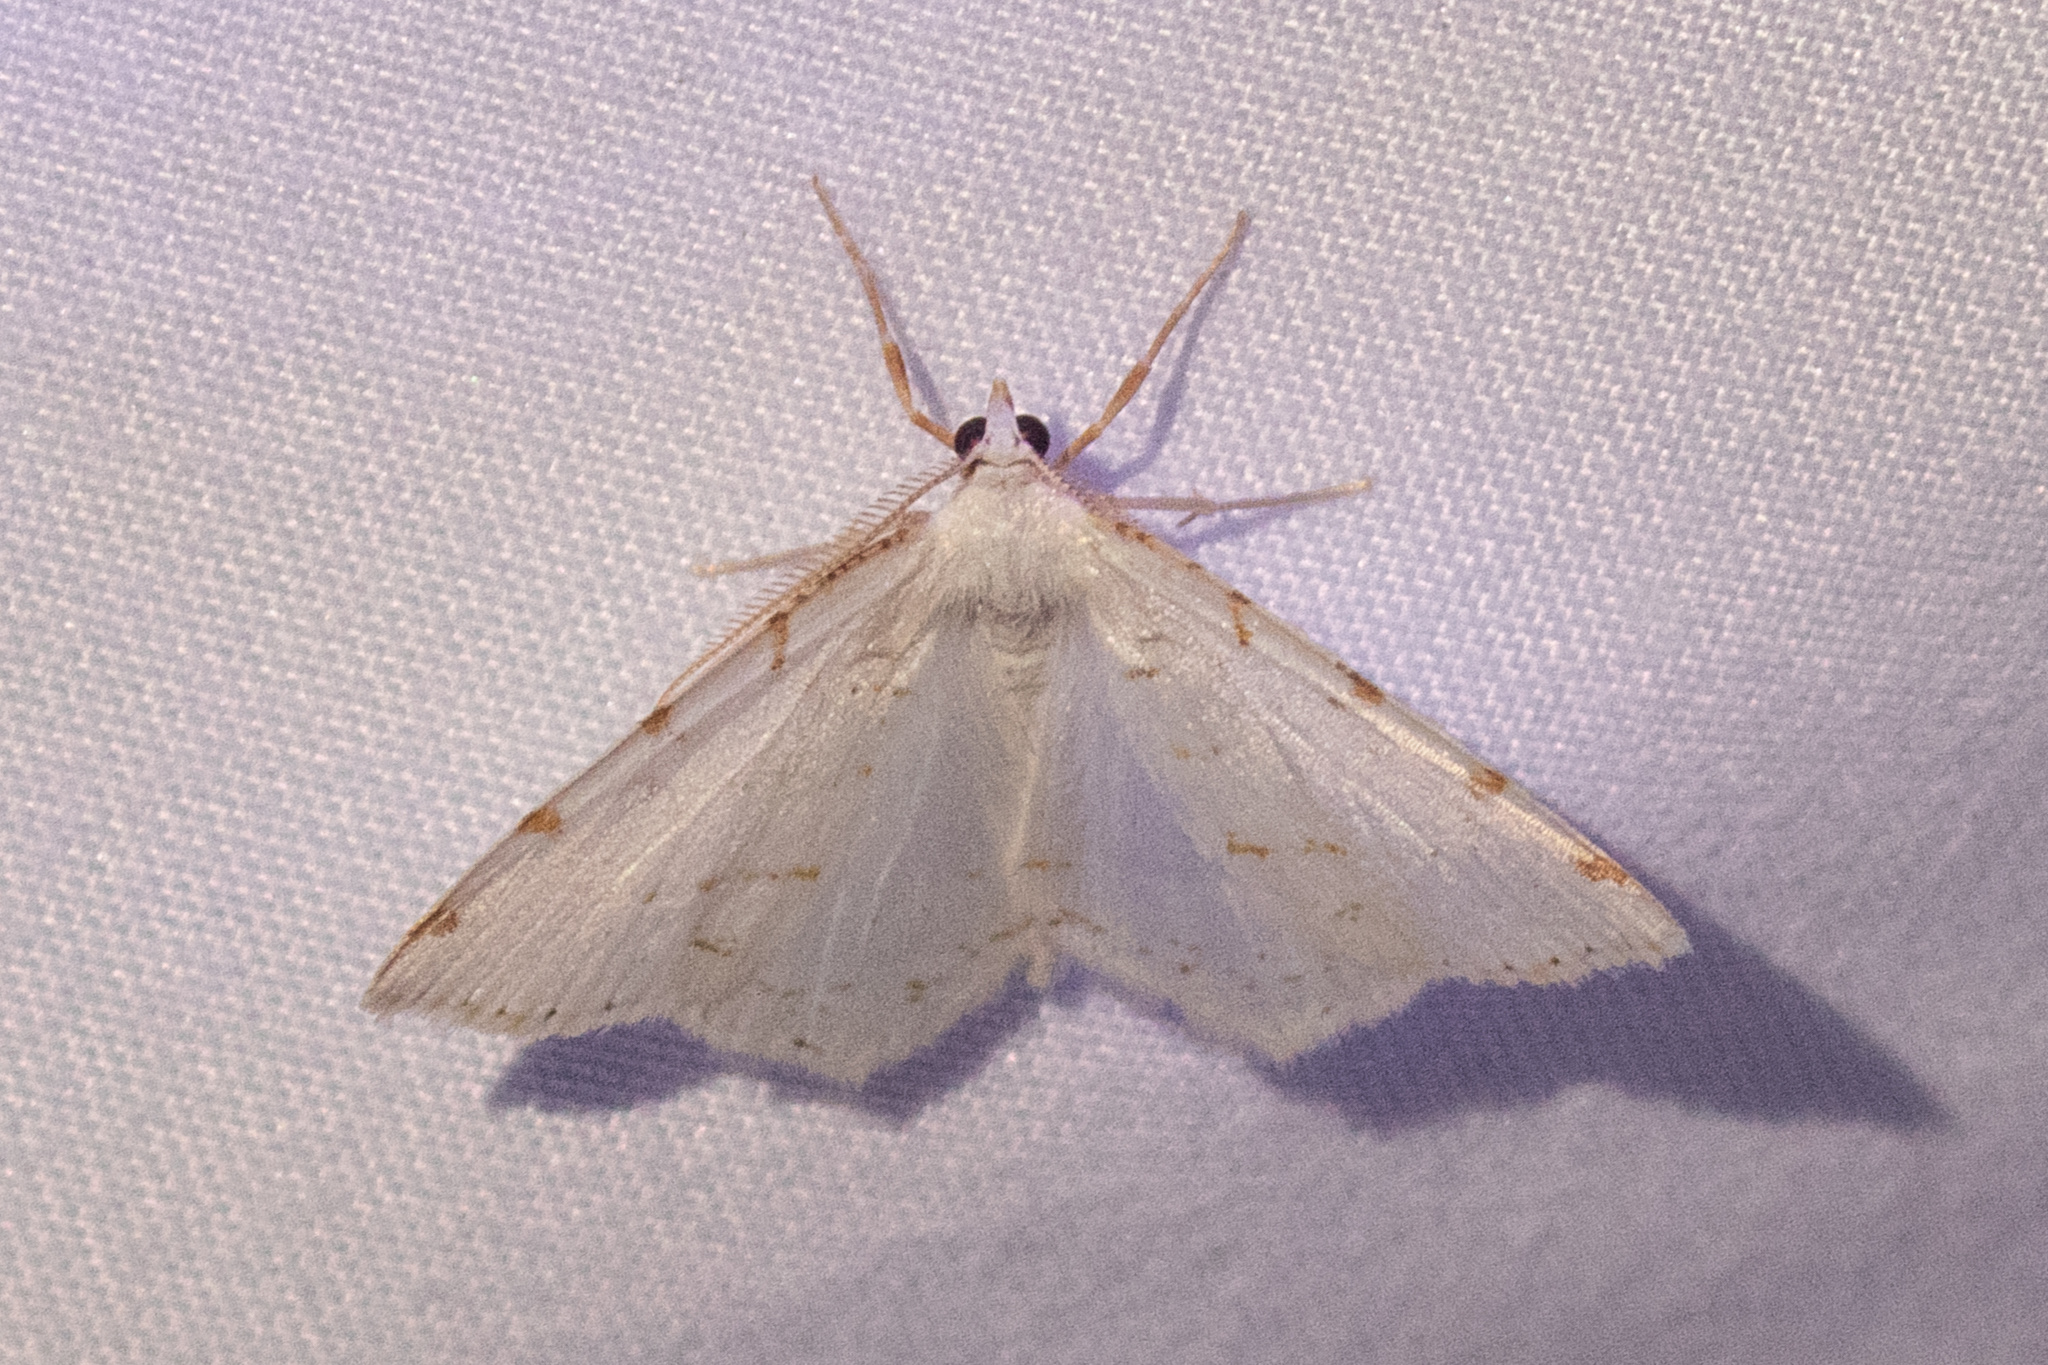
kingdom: Animalia
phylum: Arthropoda
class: Insecta
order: Lepidoptera
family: Geometridae
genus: Macaria
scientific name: Macaria pustularia
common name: Lesser maple spanworm moth
